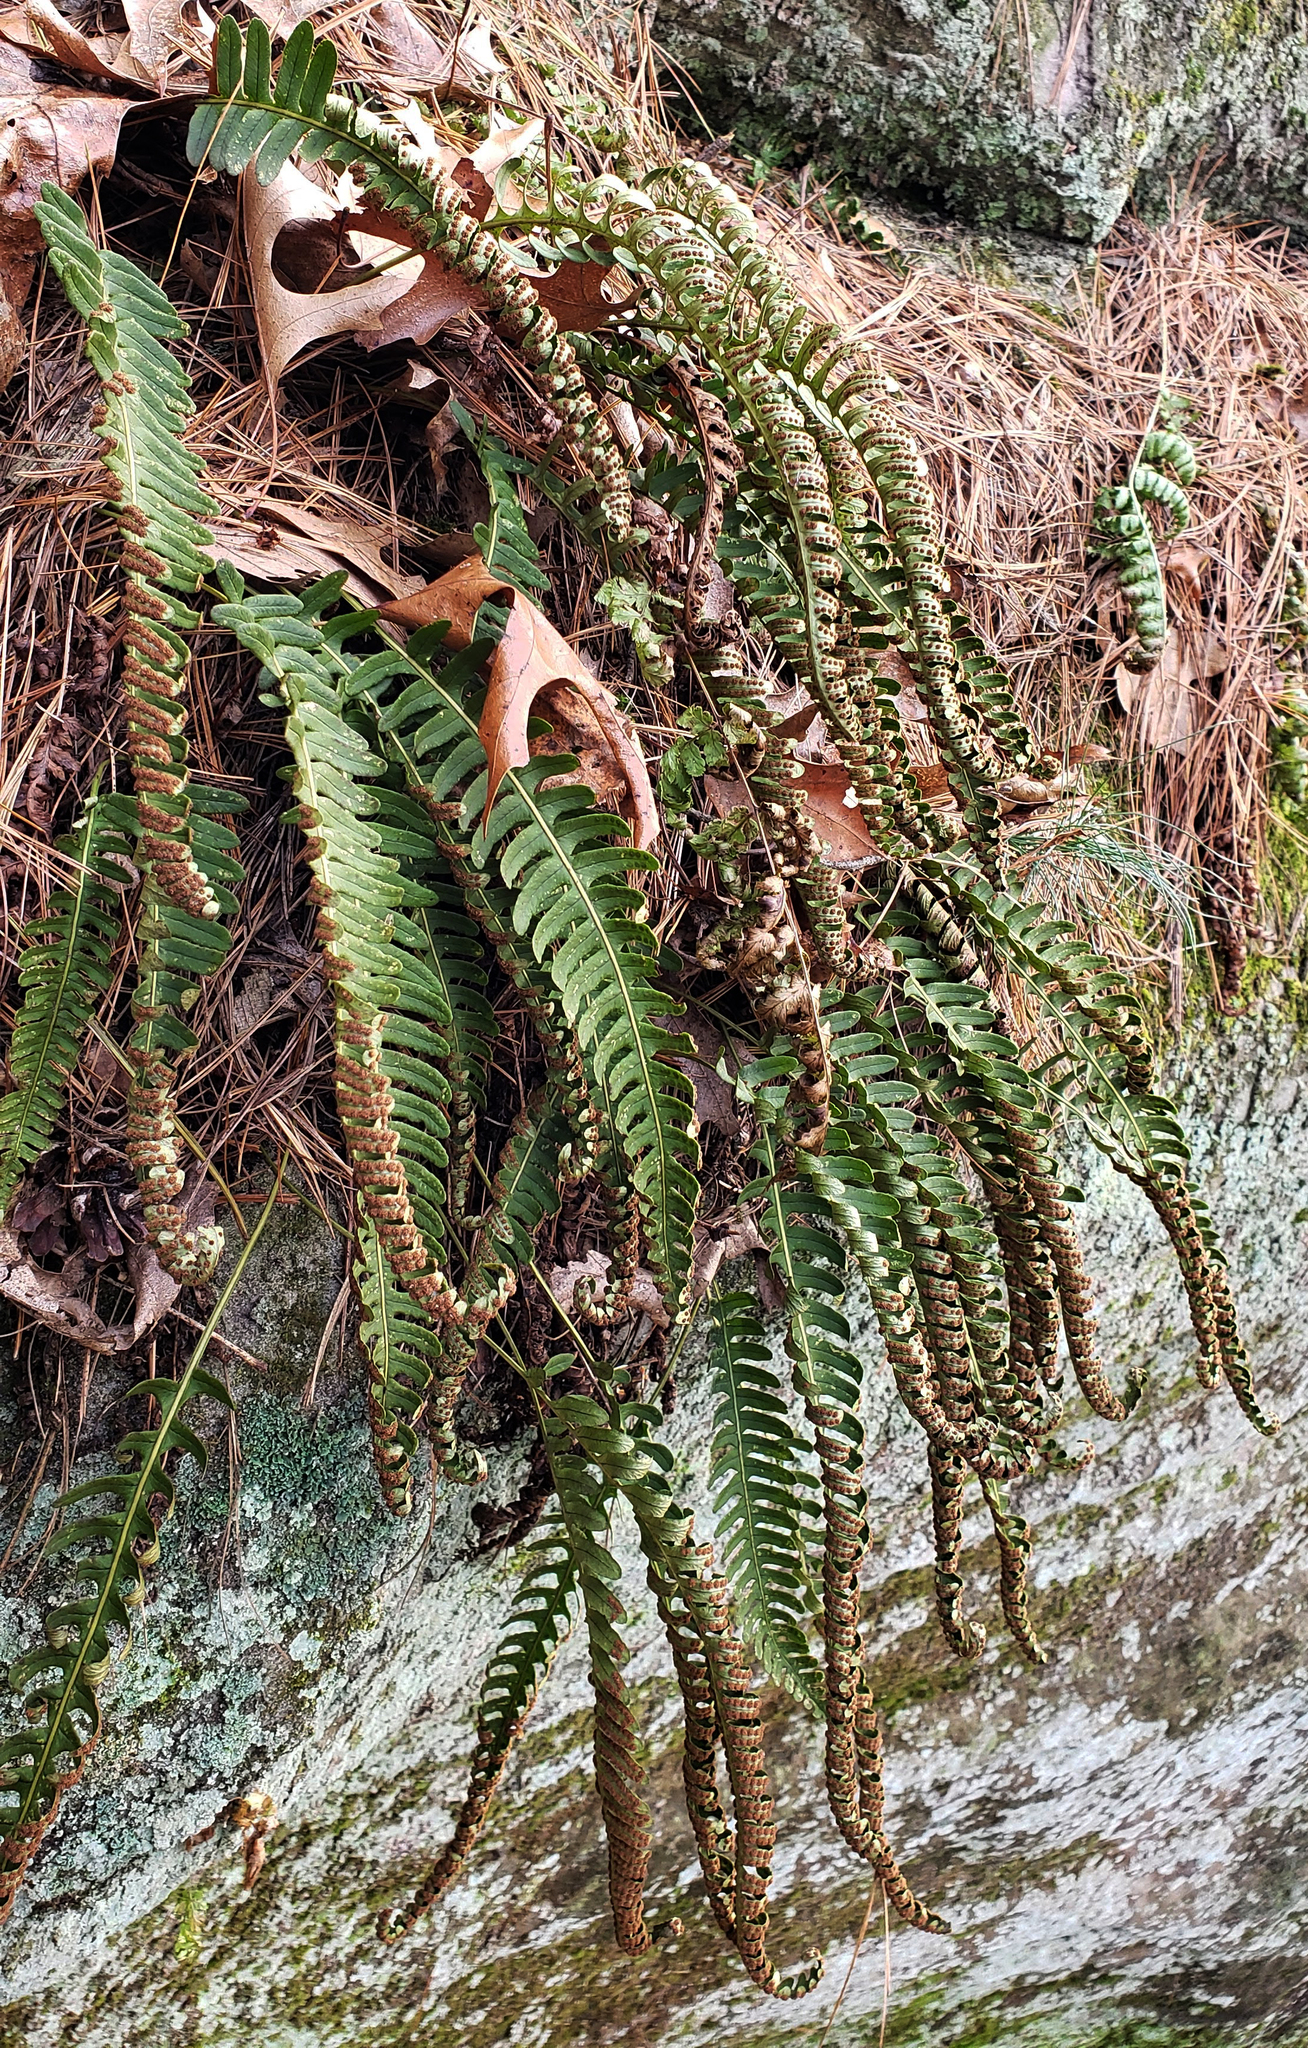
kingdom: Plantae
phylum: Tracheophyta
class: Polypodiopsida
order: Polypodiales
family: Polypodiaceae
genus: Polypodium
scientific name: Polypodium virginianum
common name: American wall fern
